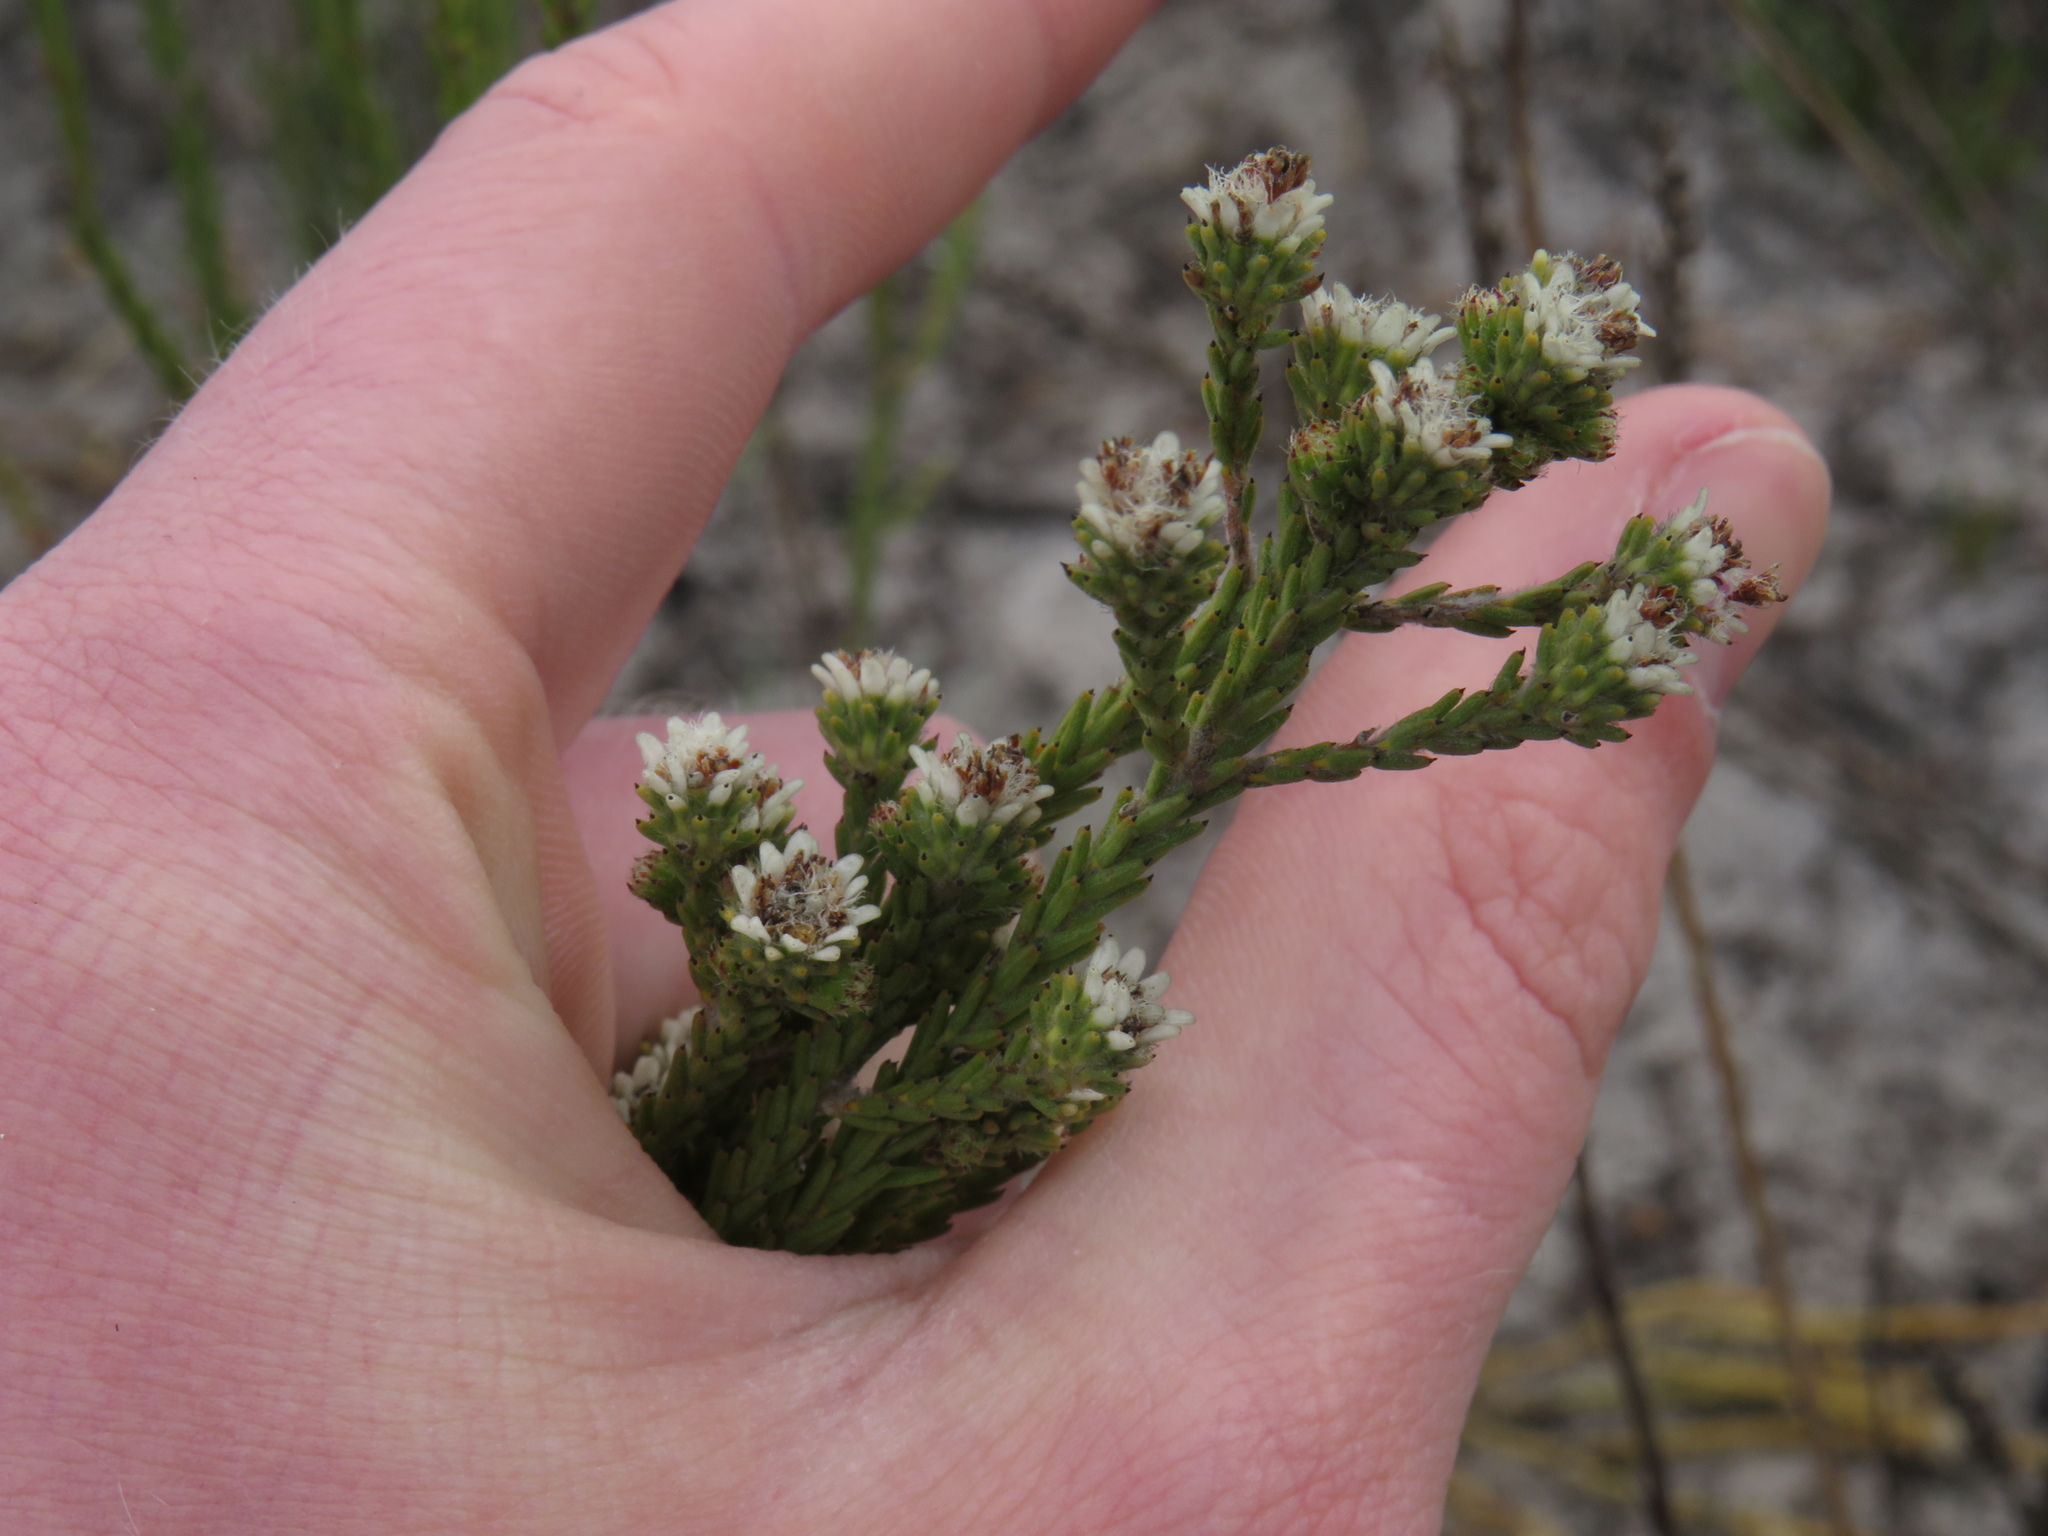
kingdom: Plantae
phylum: Tracheophyta
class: Magnoliopsida
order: Bruniales
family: Bruniaceae
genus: Staavia
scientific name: Staavia radiata
